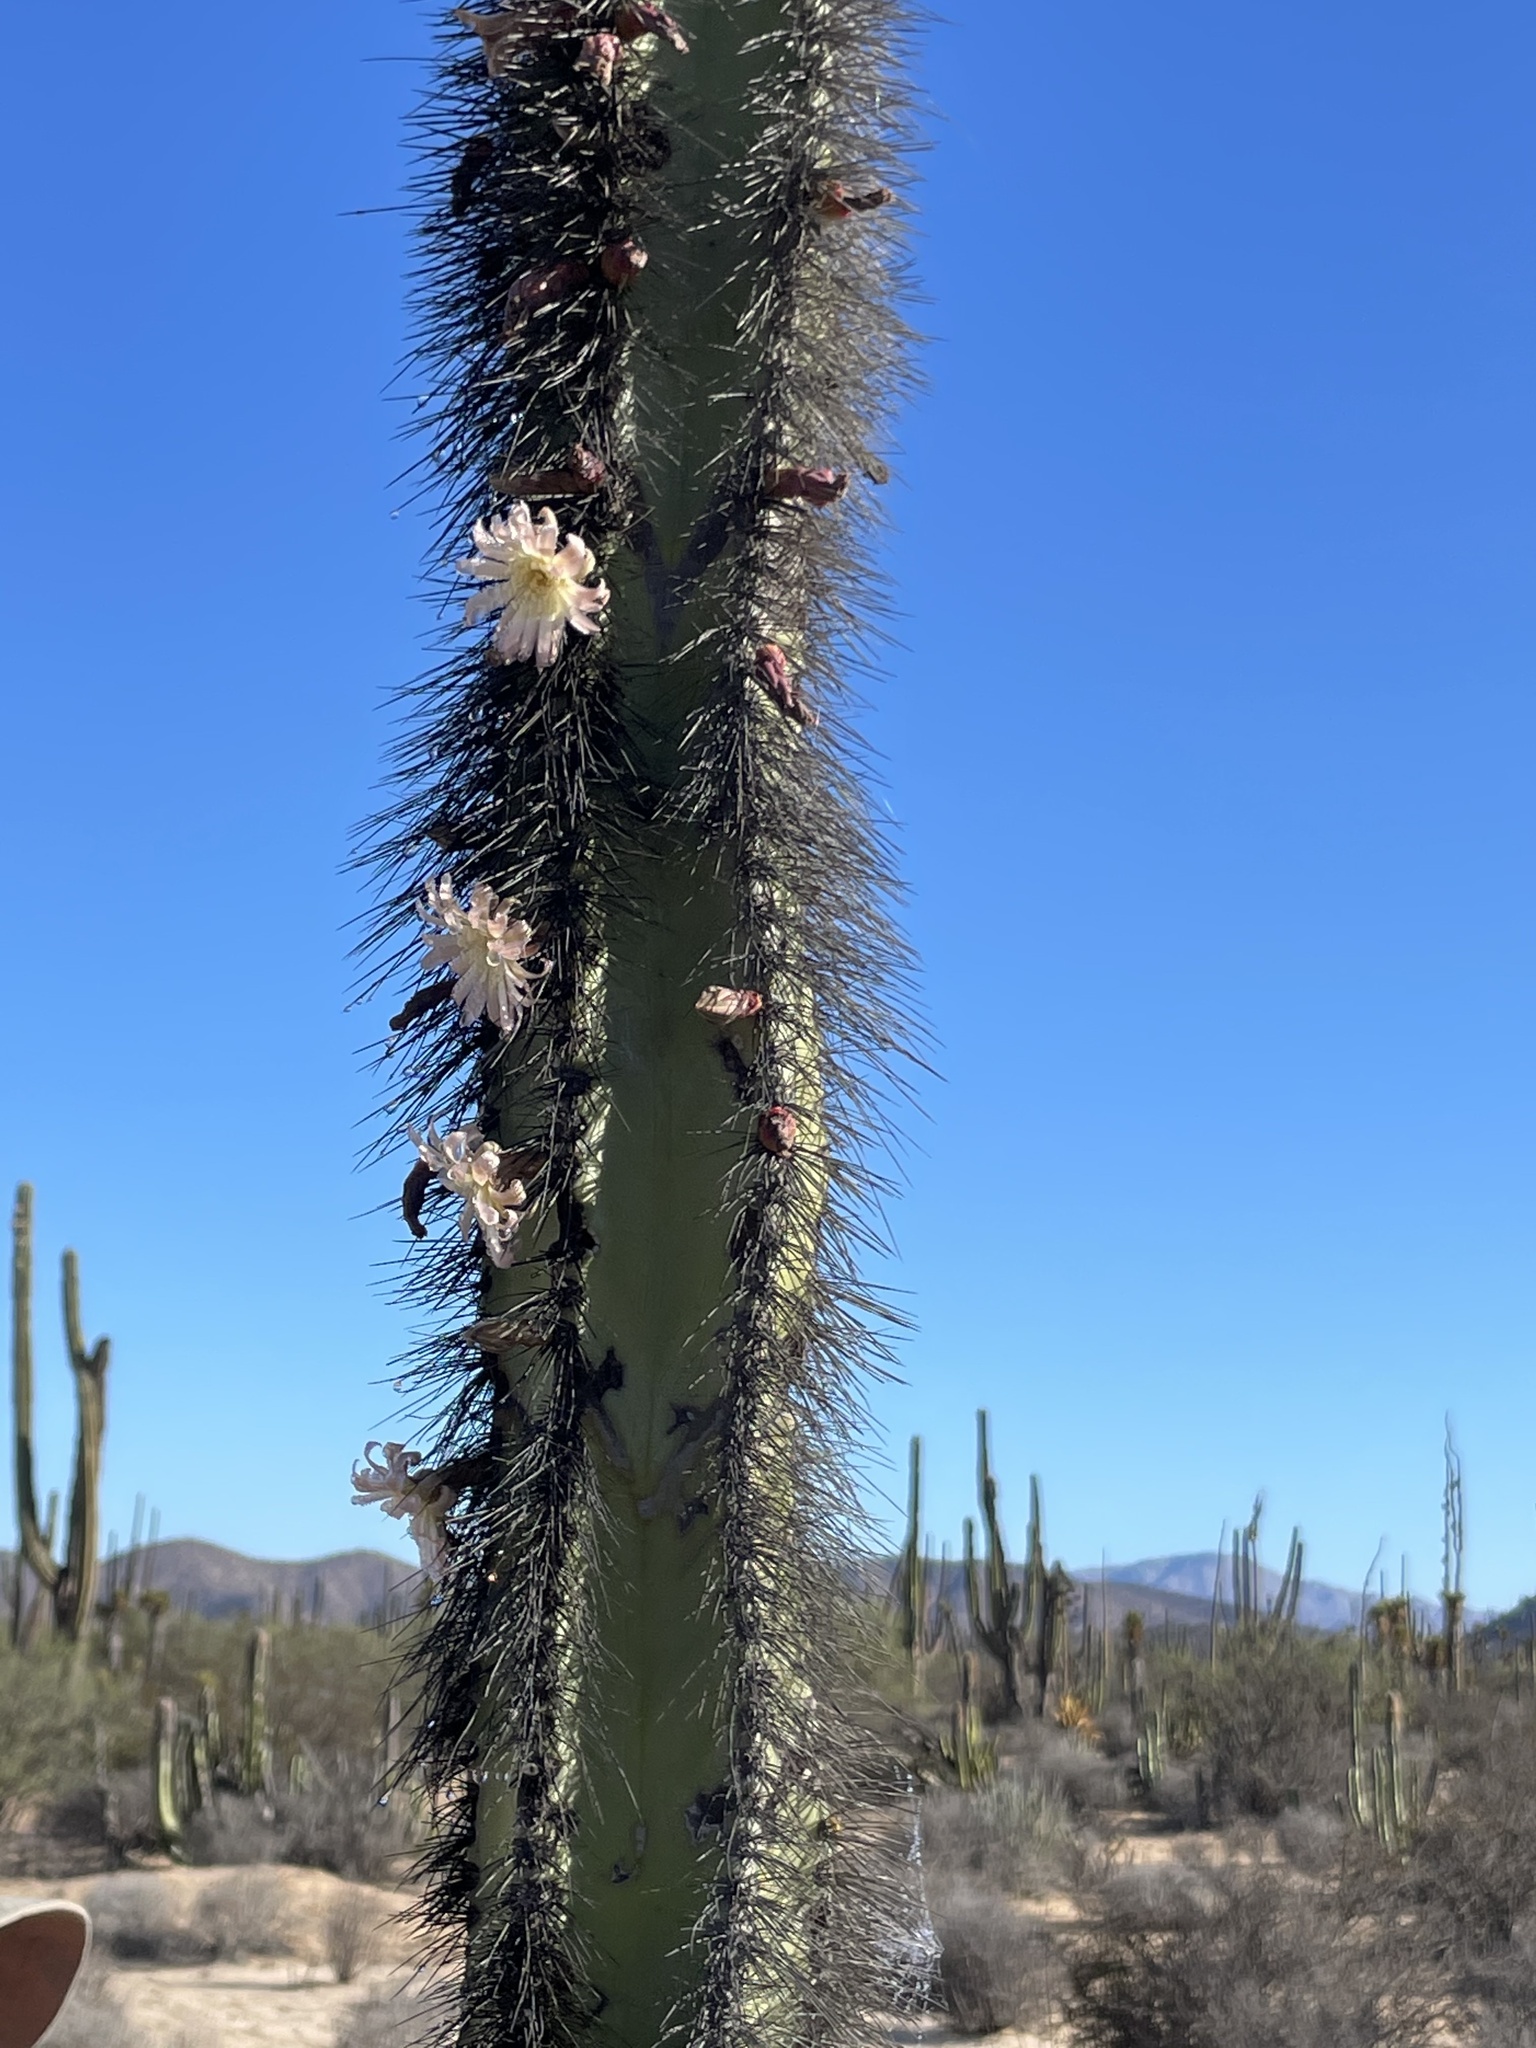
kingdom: Plantae
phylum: Tracheophyta
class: Magnoliopsida
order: Caryophyllales
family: Cactaceae
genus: Pachycereus
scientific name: Pachycereus schottii
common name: Senita cactus
